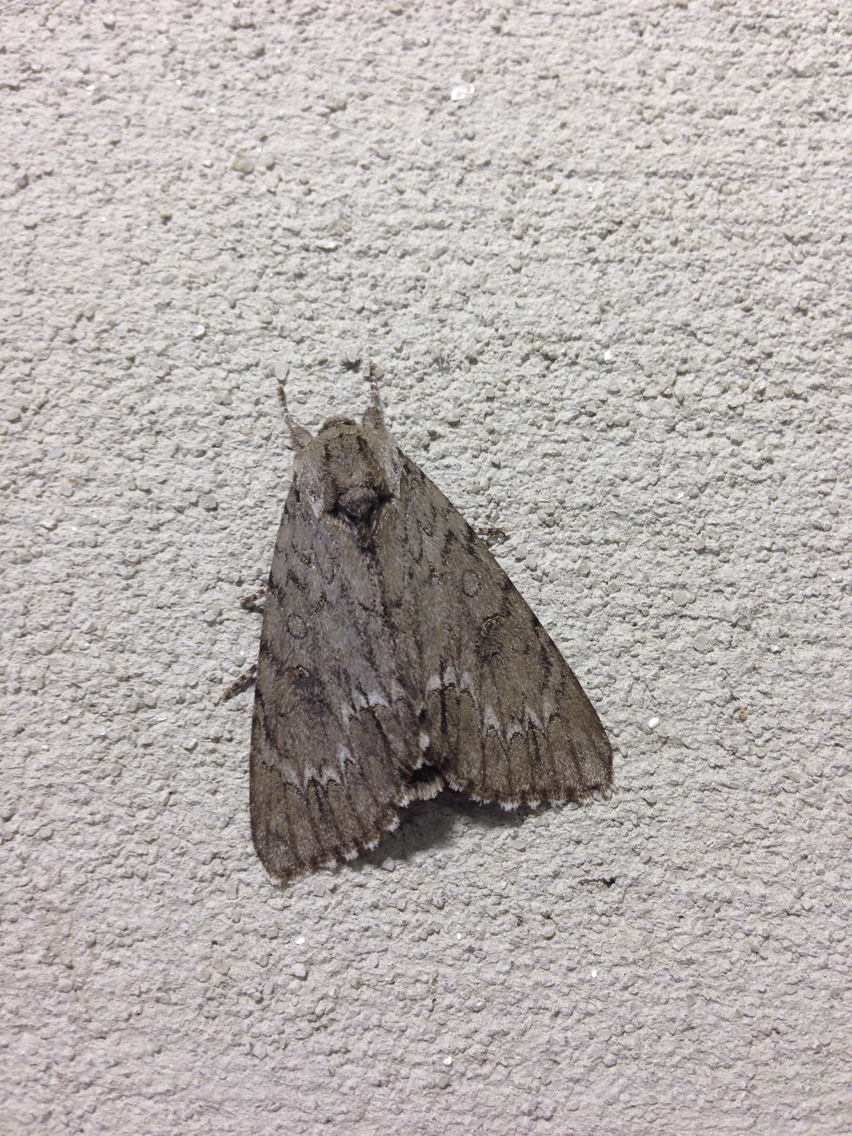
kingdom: Animalia
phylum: Arthropoda
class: Insecta
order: Lepidoptera
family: Noctuidae
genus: Acronicta
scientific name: Acronicta americana
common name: American dagger
